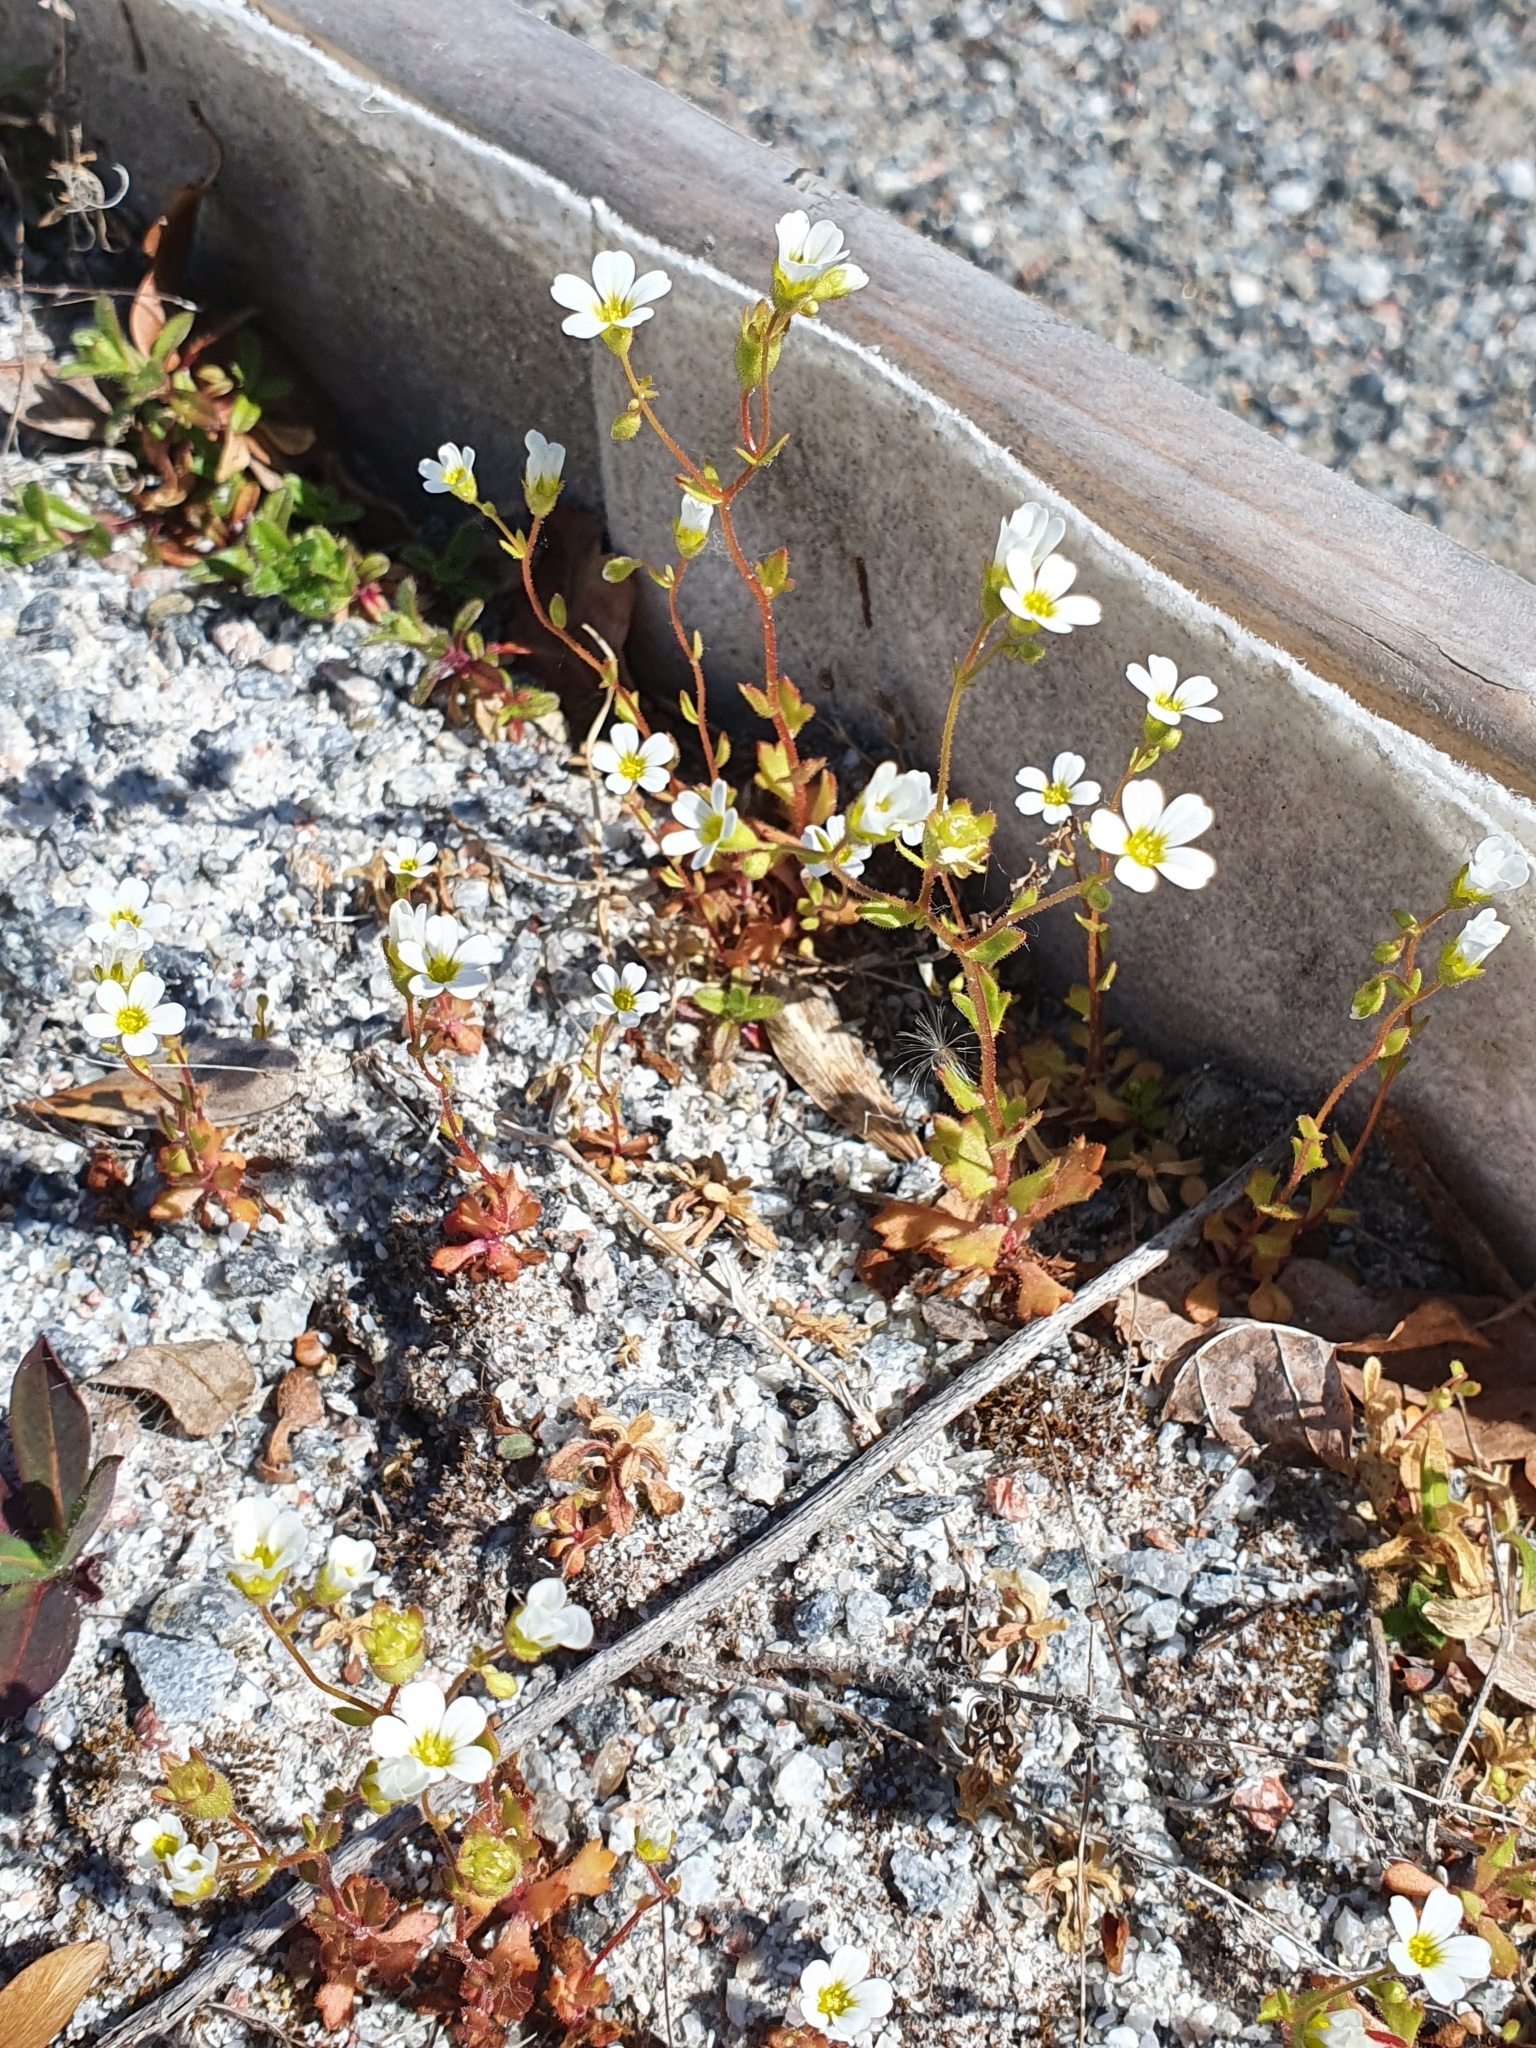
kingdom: Plantae
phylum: Tracheophyta
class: Magnoliopsida
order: Saxifragales
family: Saxifragaceae
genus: Saxifraga
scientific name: Saxifraga osloensis
